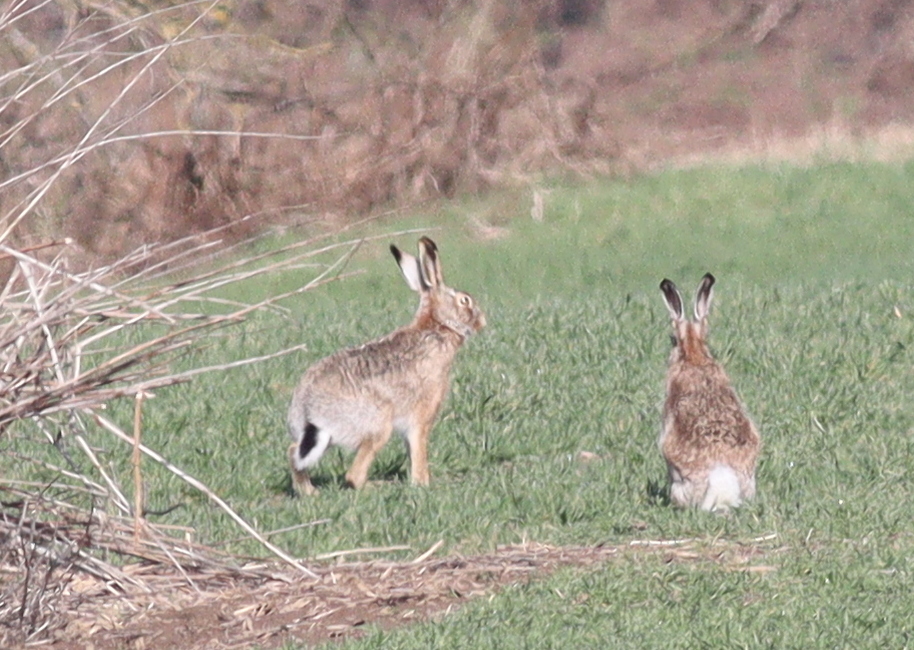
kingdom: Animalia
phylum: Chordata
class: Mammalia
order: Lagomorpha
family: Leporidae
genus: Lepus
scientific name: Lepus europaeus
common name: European hare
